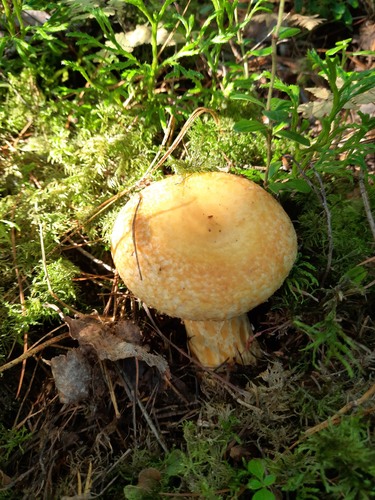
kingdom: Fungi
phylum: Basidiomycota
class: Agaricomycetes
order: Russulales
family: Russulaceae
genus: Lactarius
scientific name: Lactarius repraesentaneus
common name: Yellow bearded milkcap
